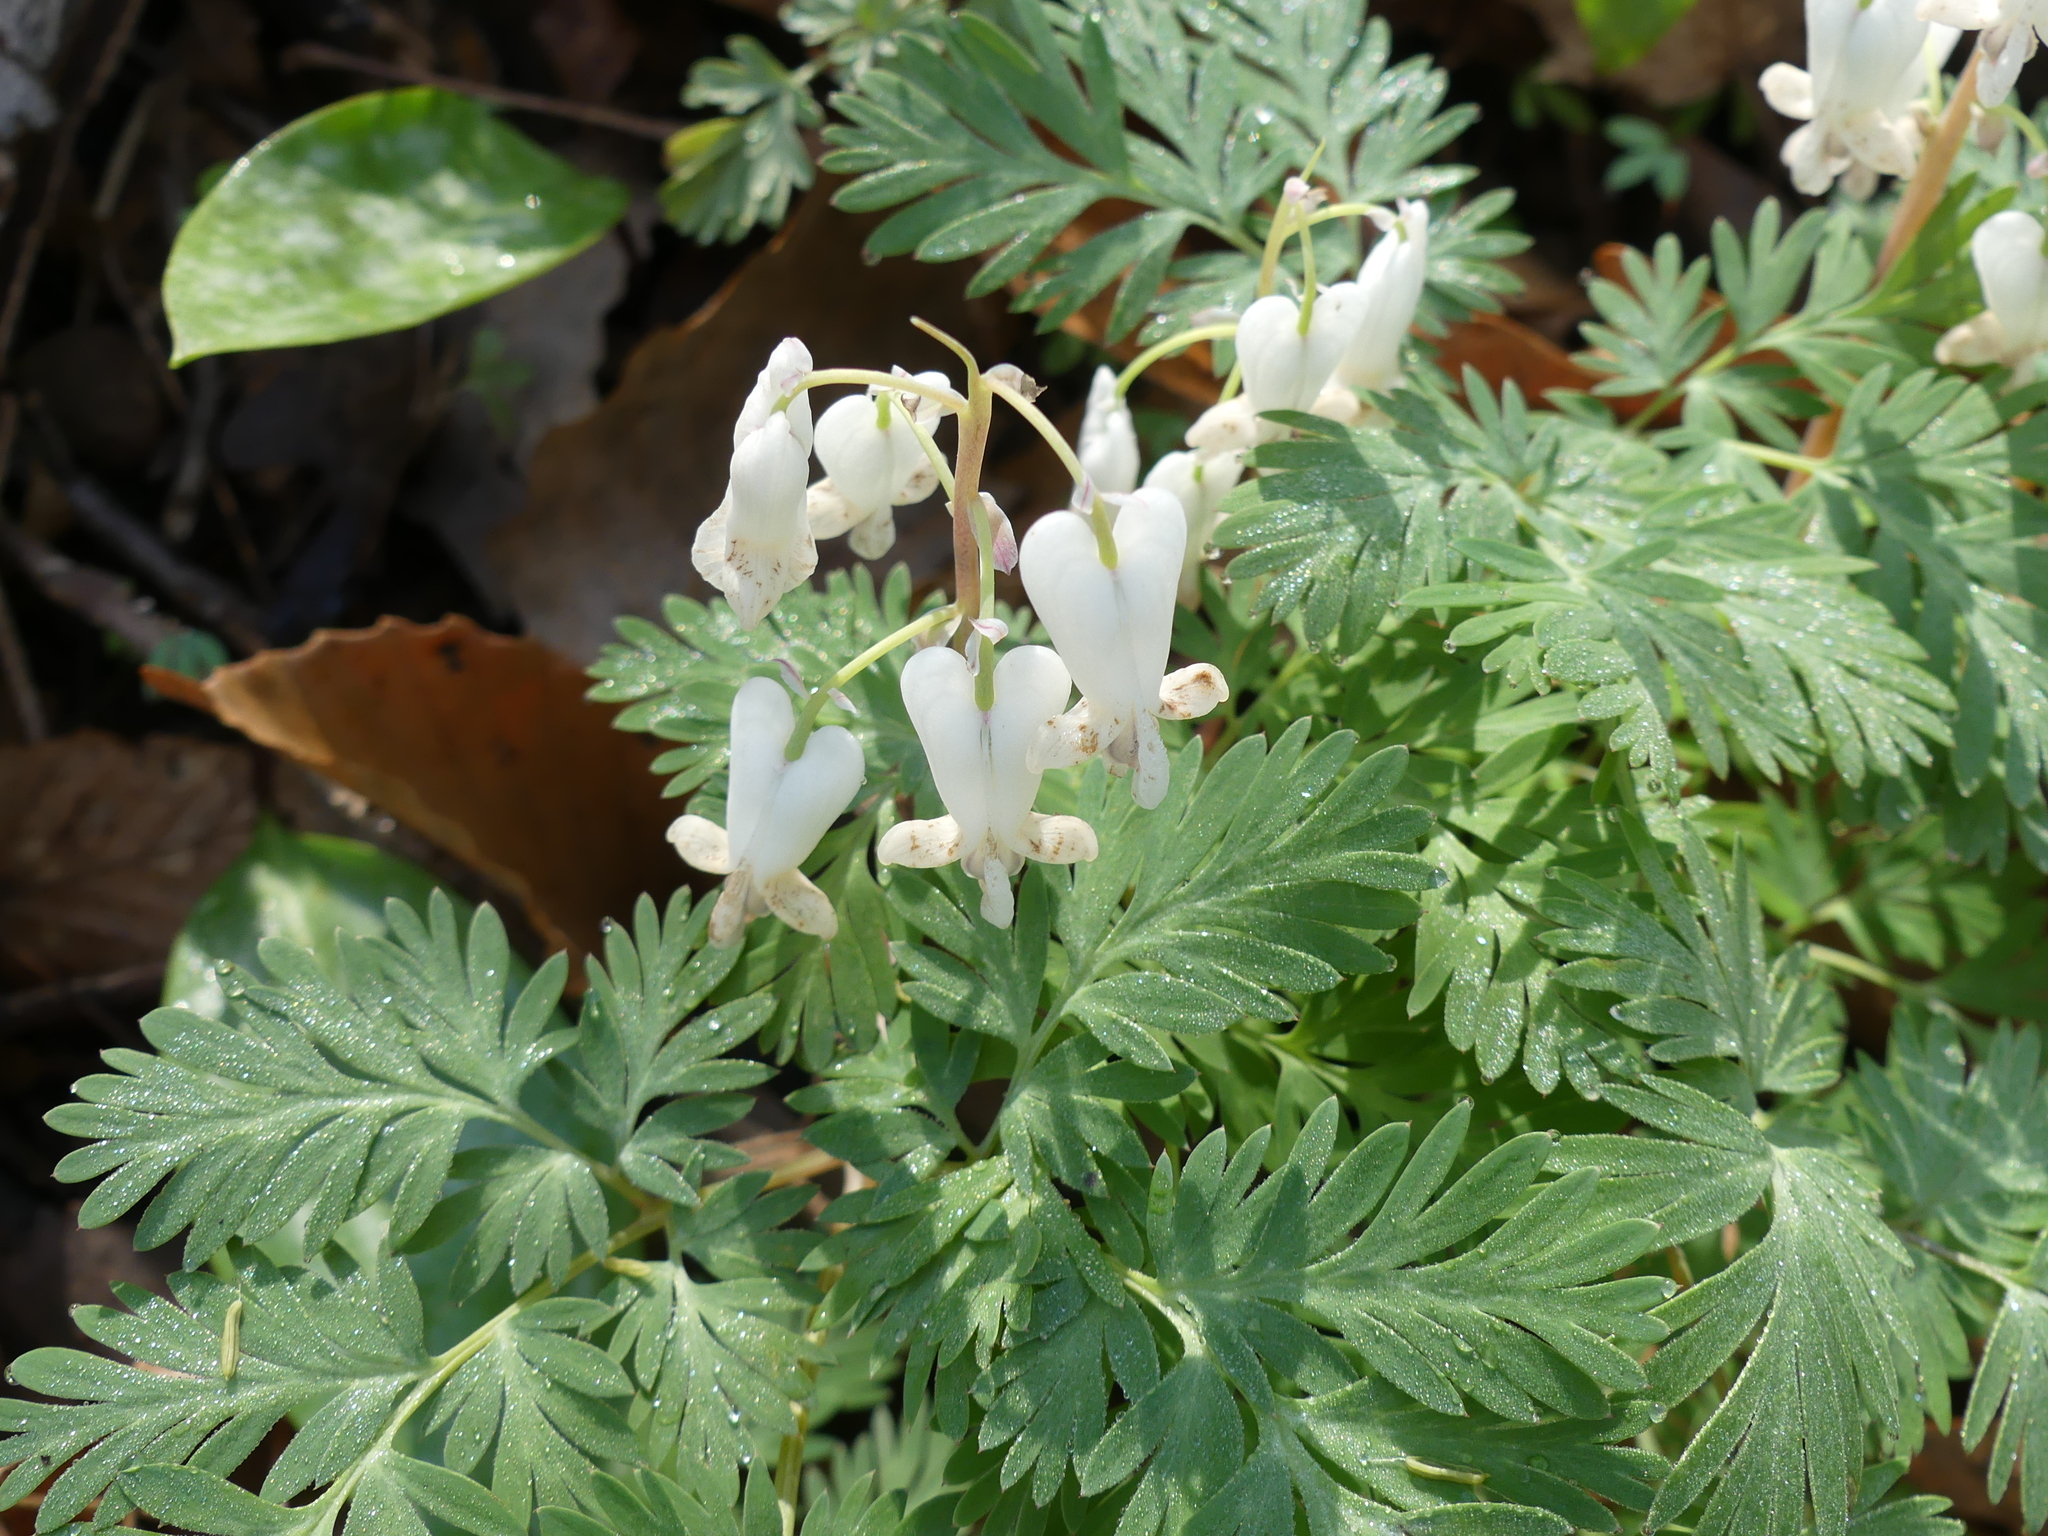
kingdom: Plantae
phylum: Tracheophyta
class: Magnoliopsida
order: Ranunculales
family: Papaveraceae
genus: Dicentra
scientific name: Dicentra canadensis
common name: Squirrel-corn
